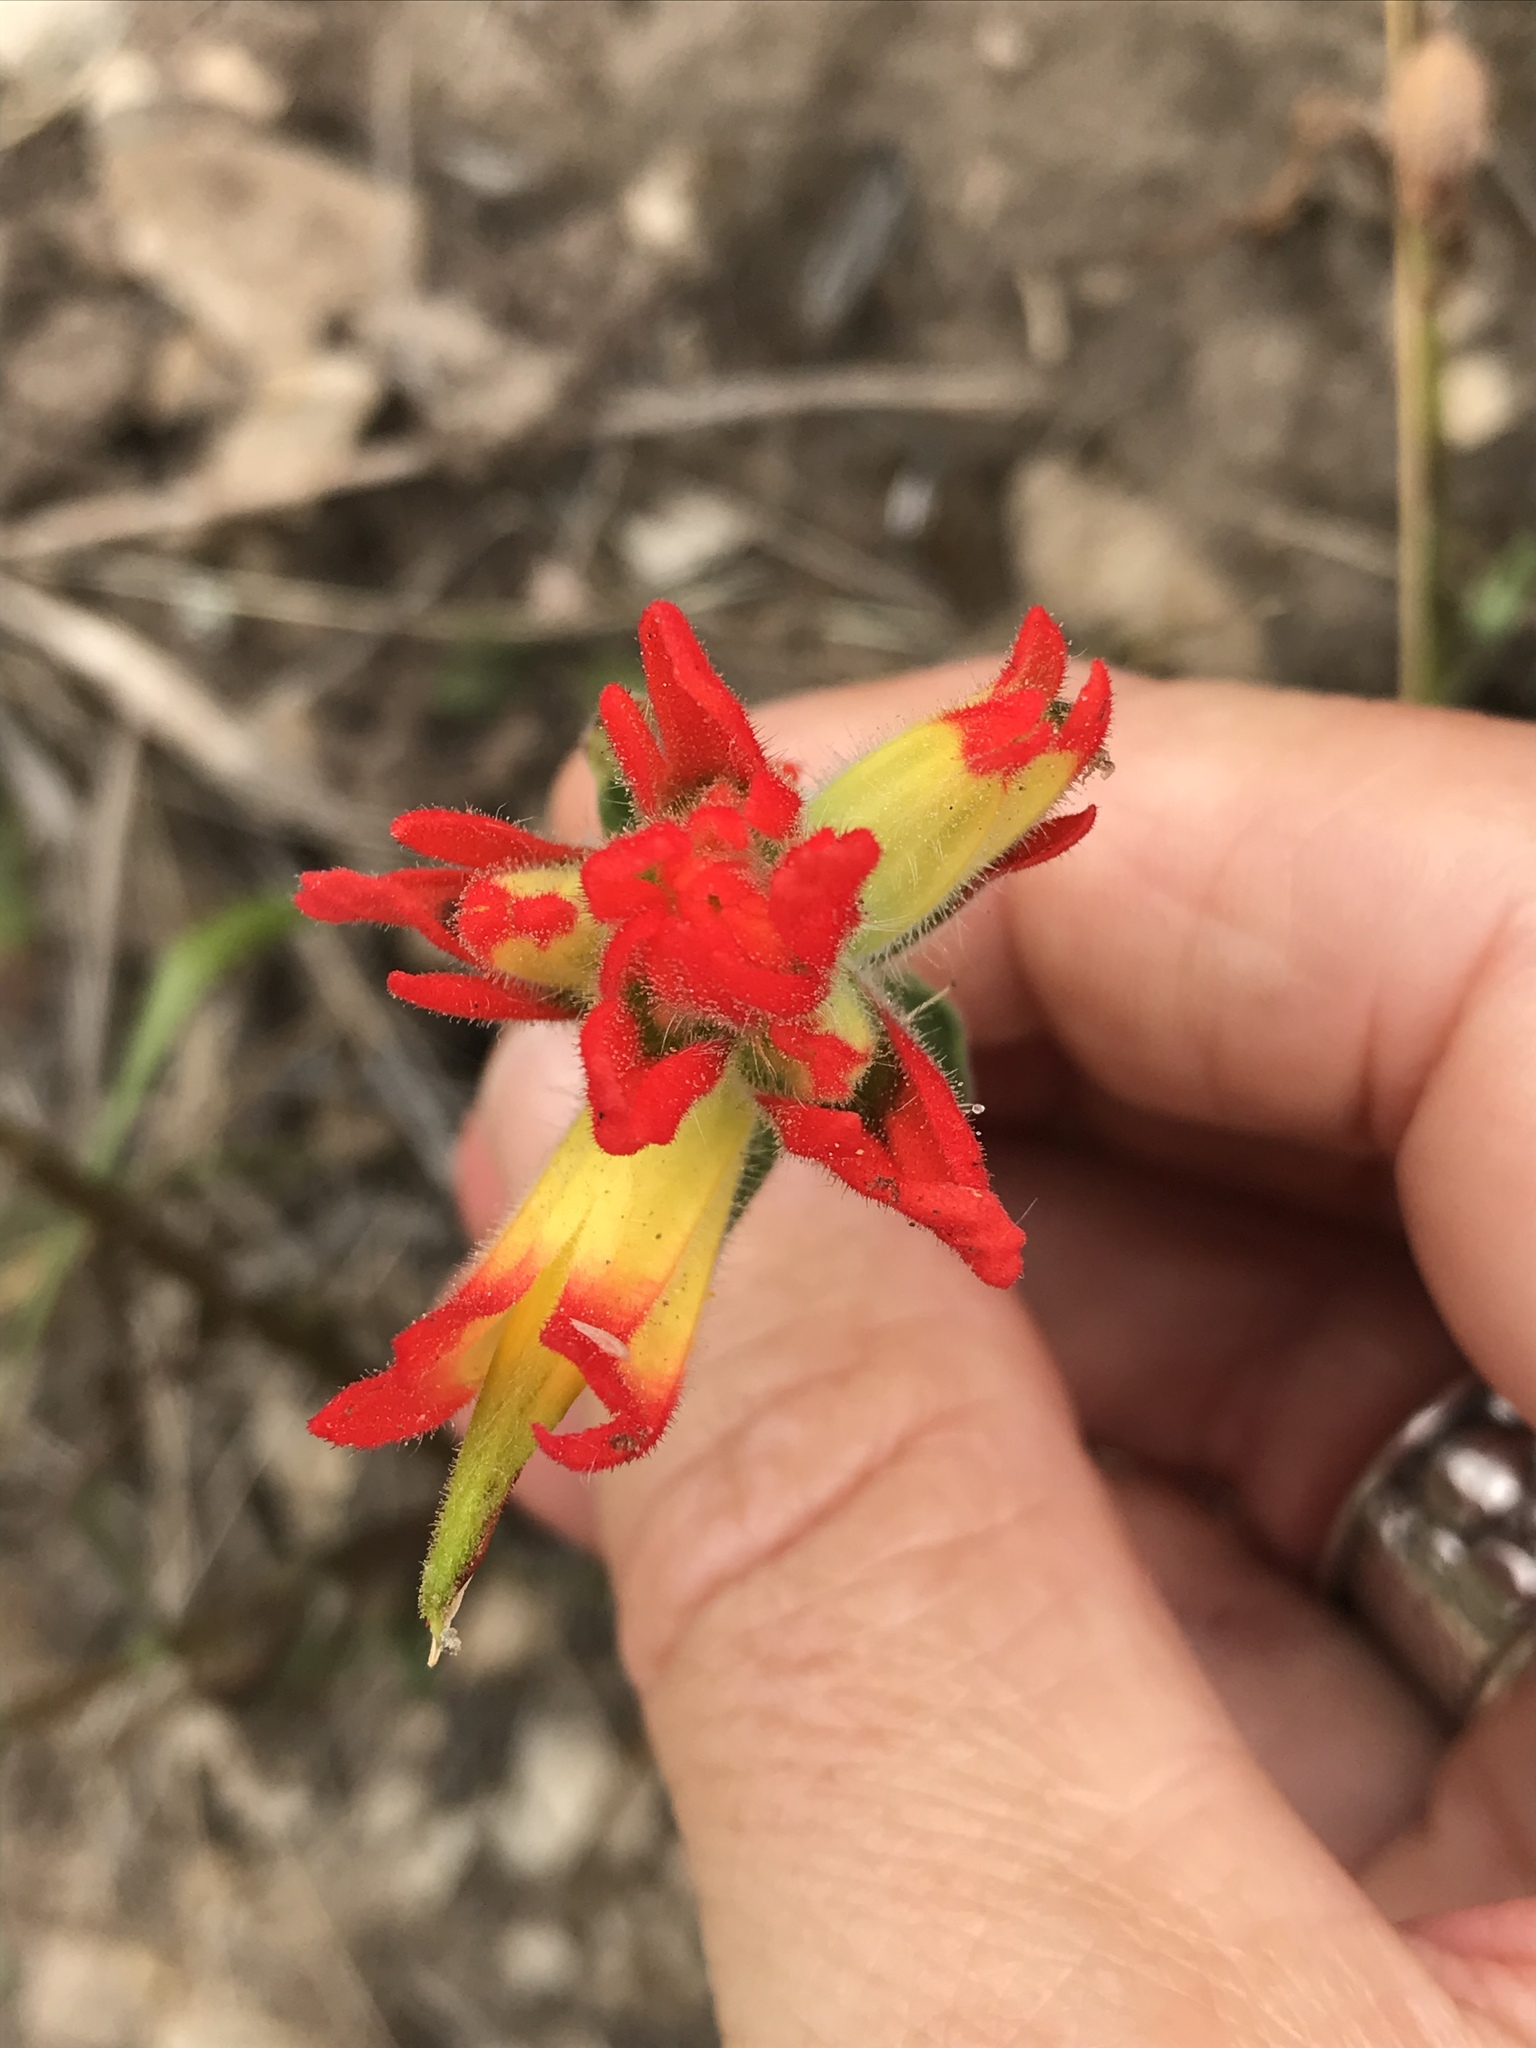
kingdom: Plantae
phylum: Tracheophyta
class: Magnoliopsida
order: Lamiales
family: Orobanchaceae
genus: Castilleja
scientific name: Castilleja affinis
